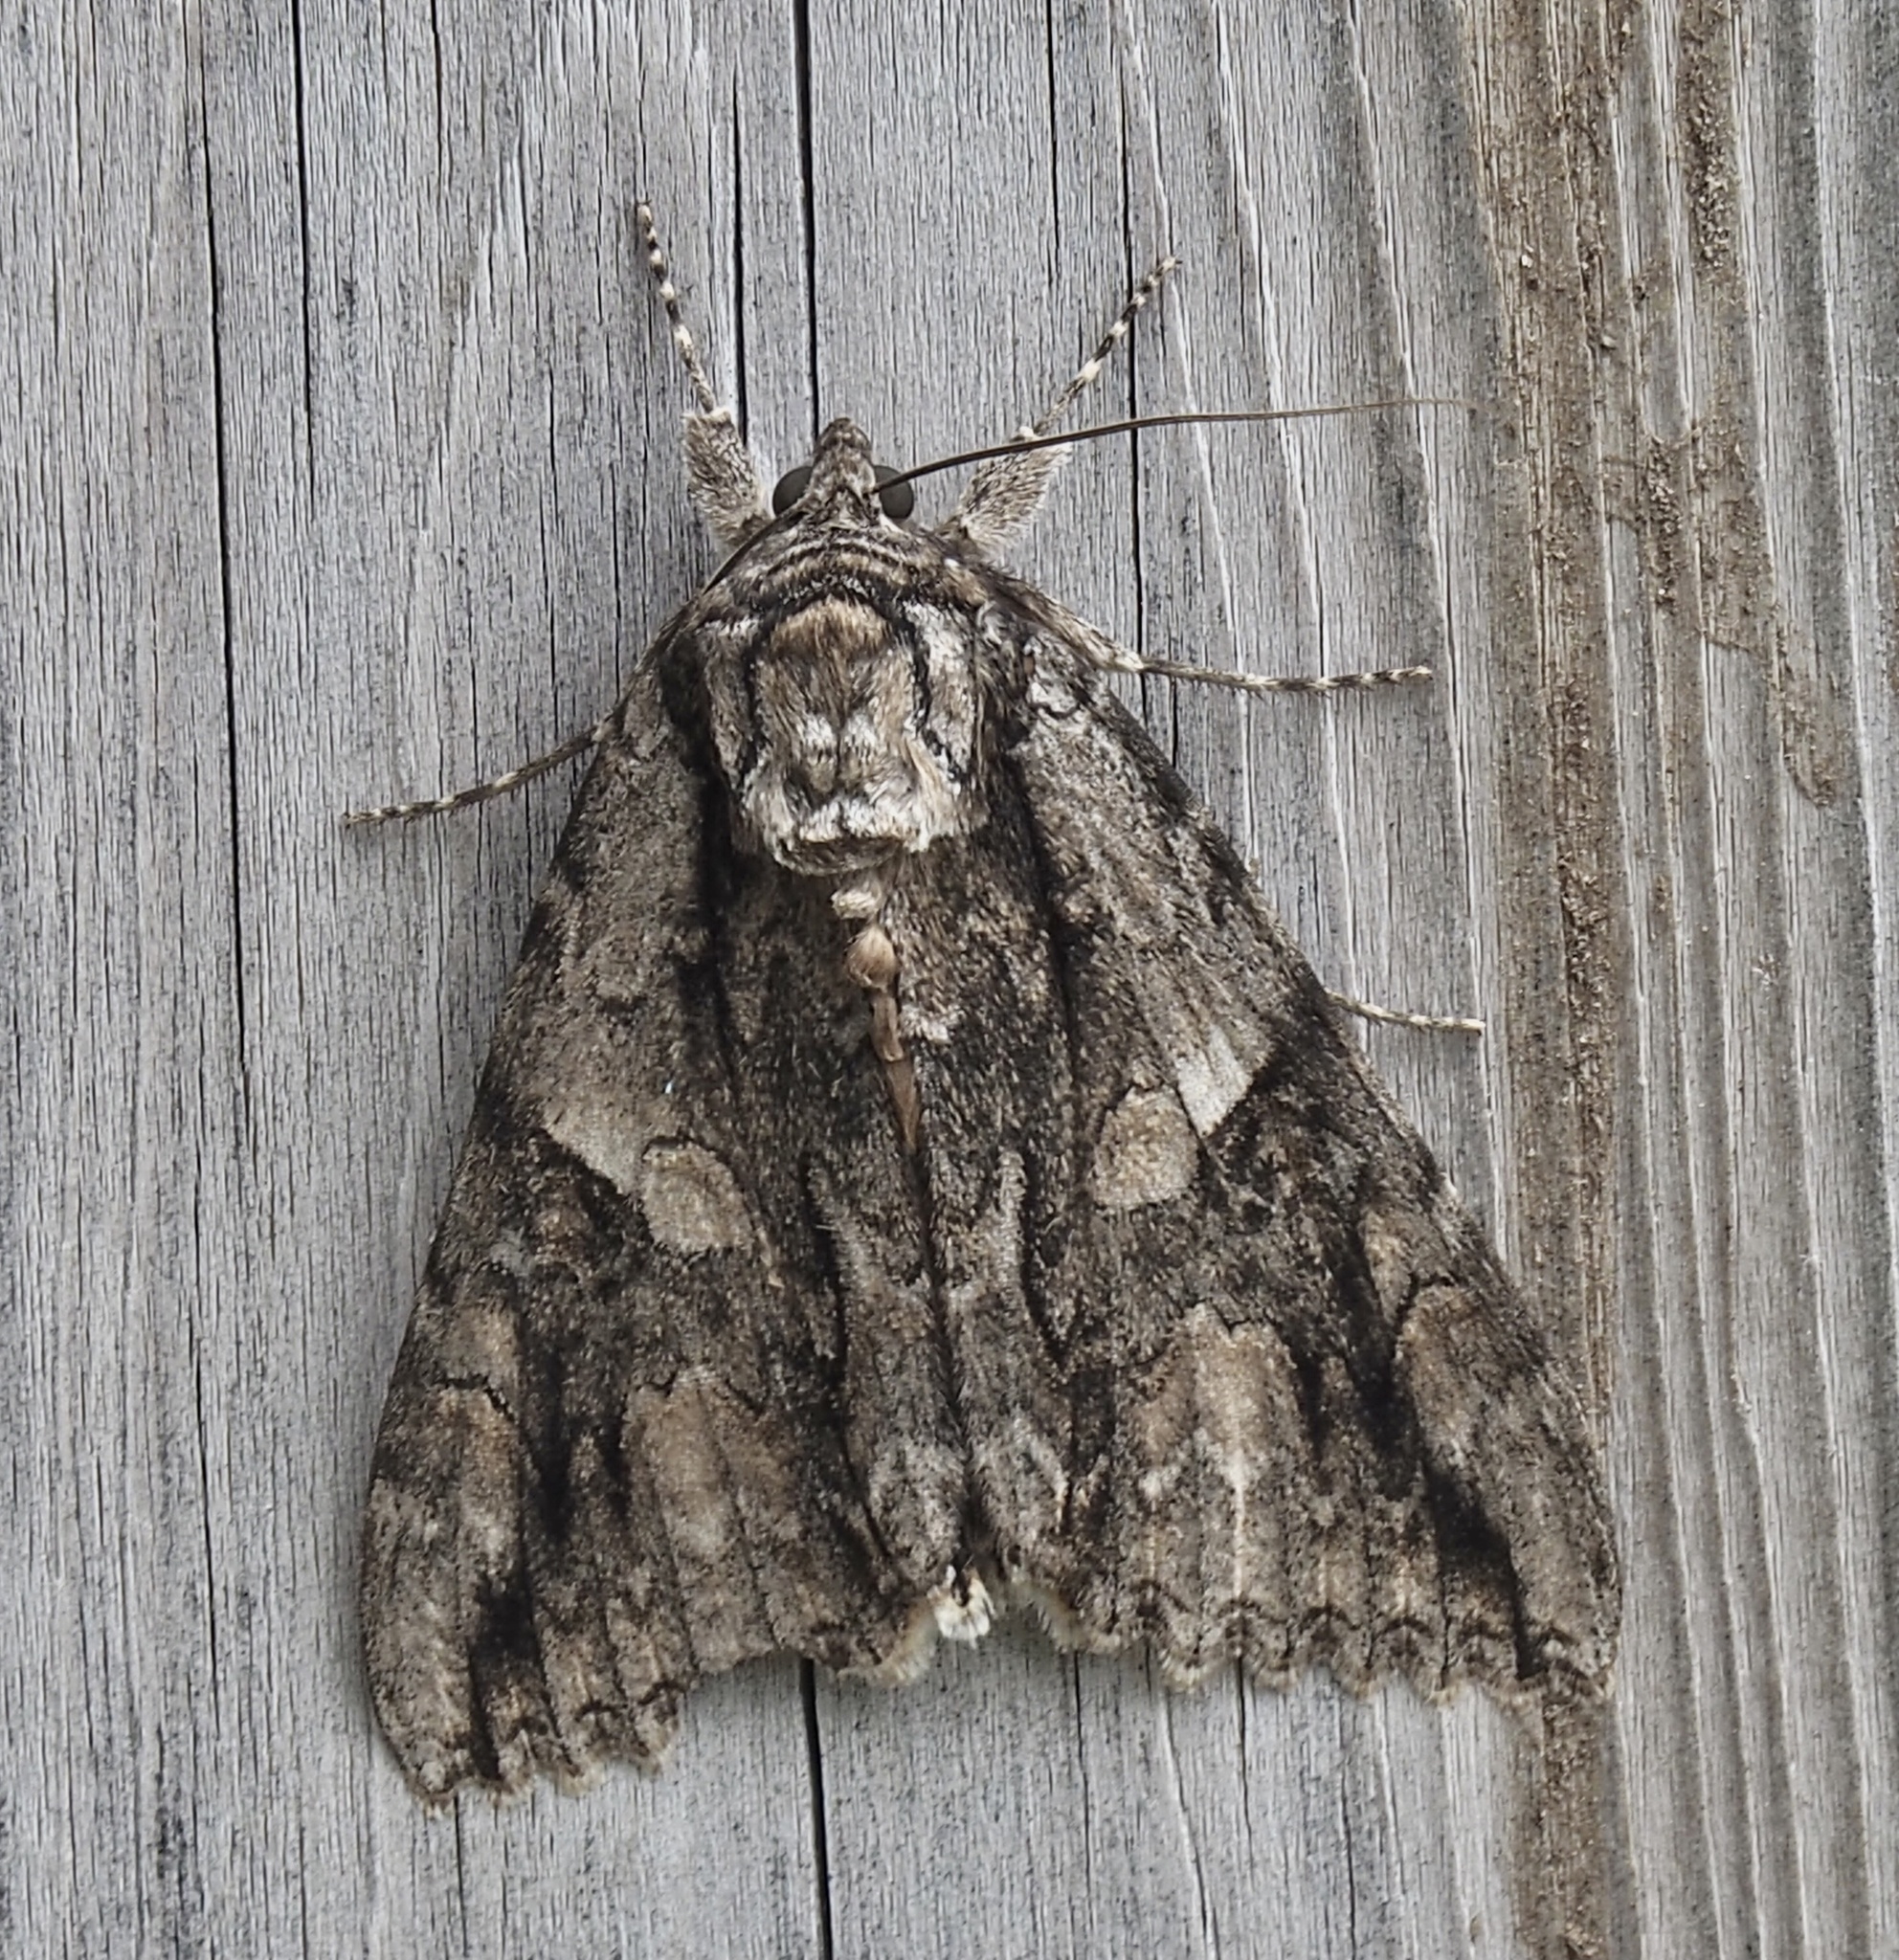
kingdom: Animalia
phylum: Arthropoda
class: Insecta
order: Lepidoptera
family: Erebidae
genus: Catocala
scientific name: Catocala parta
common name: Mother underwing
